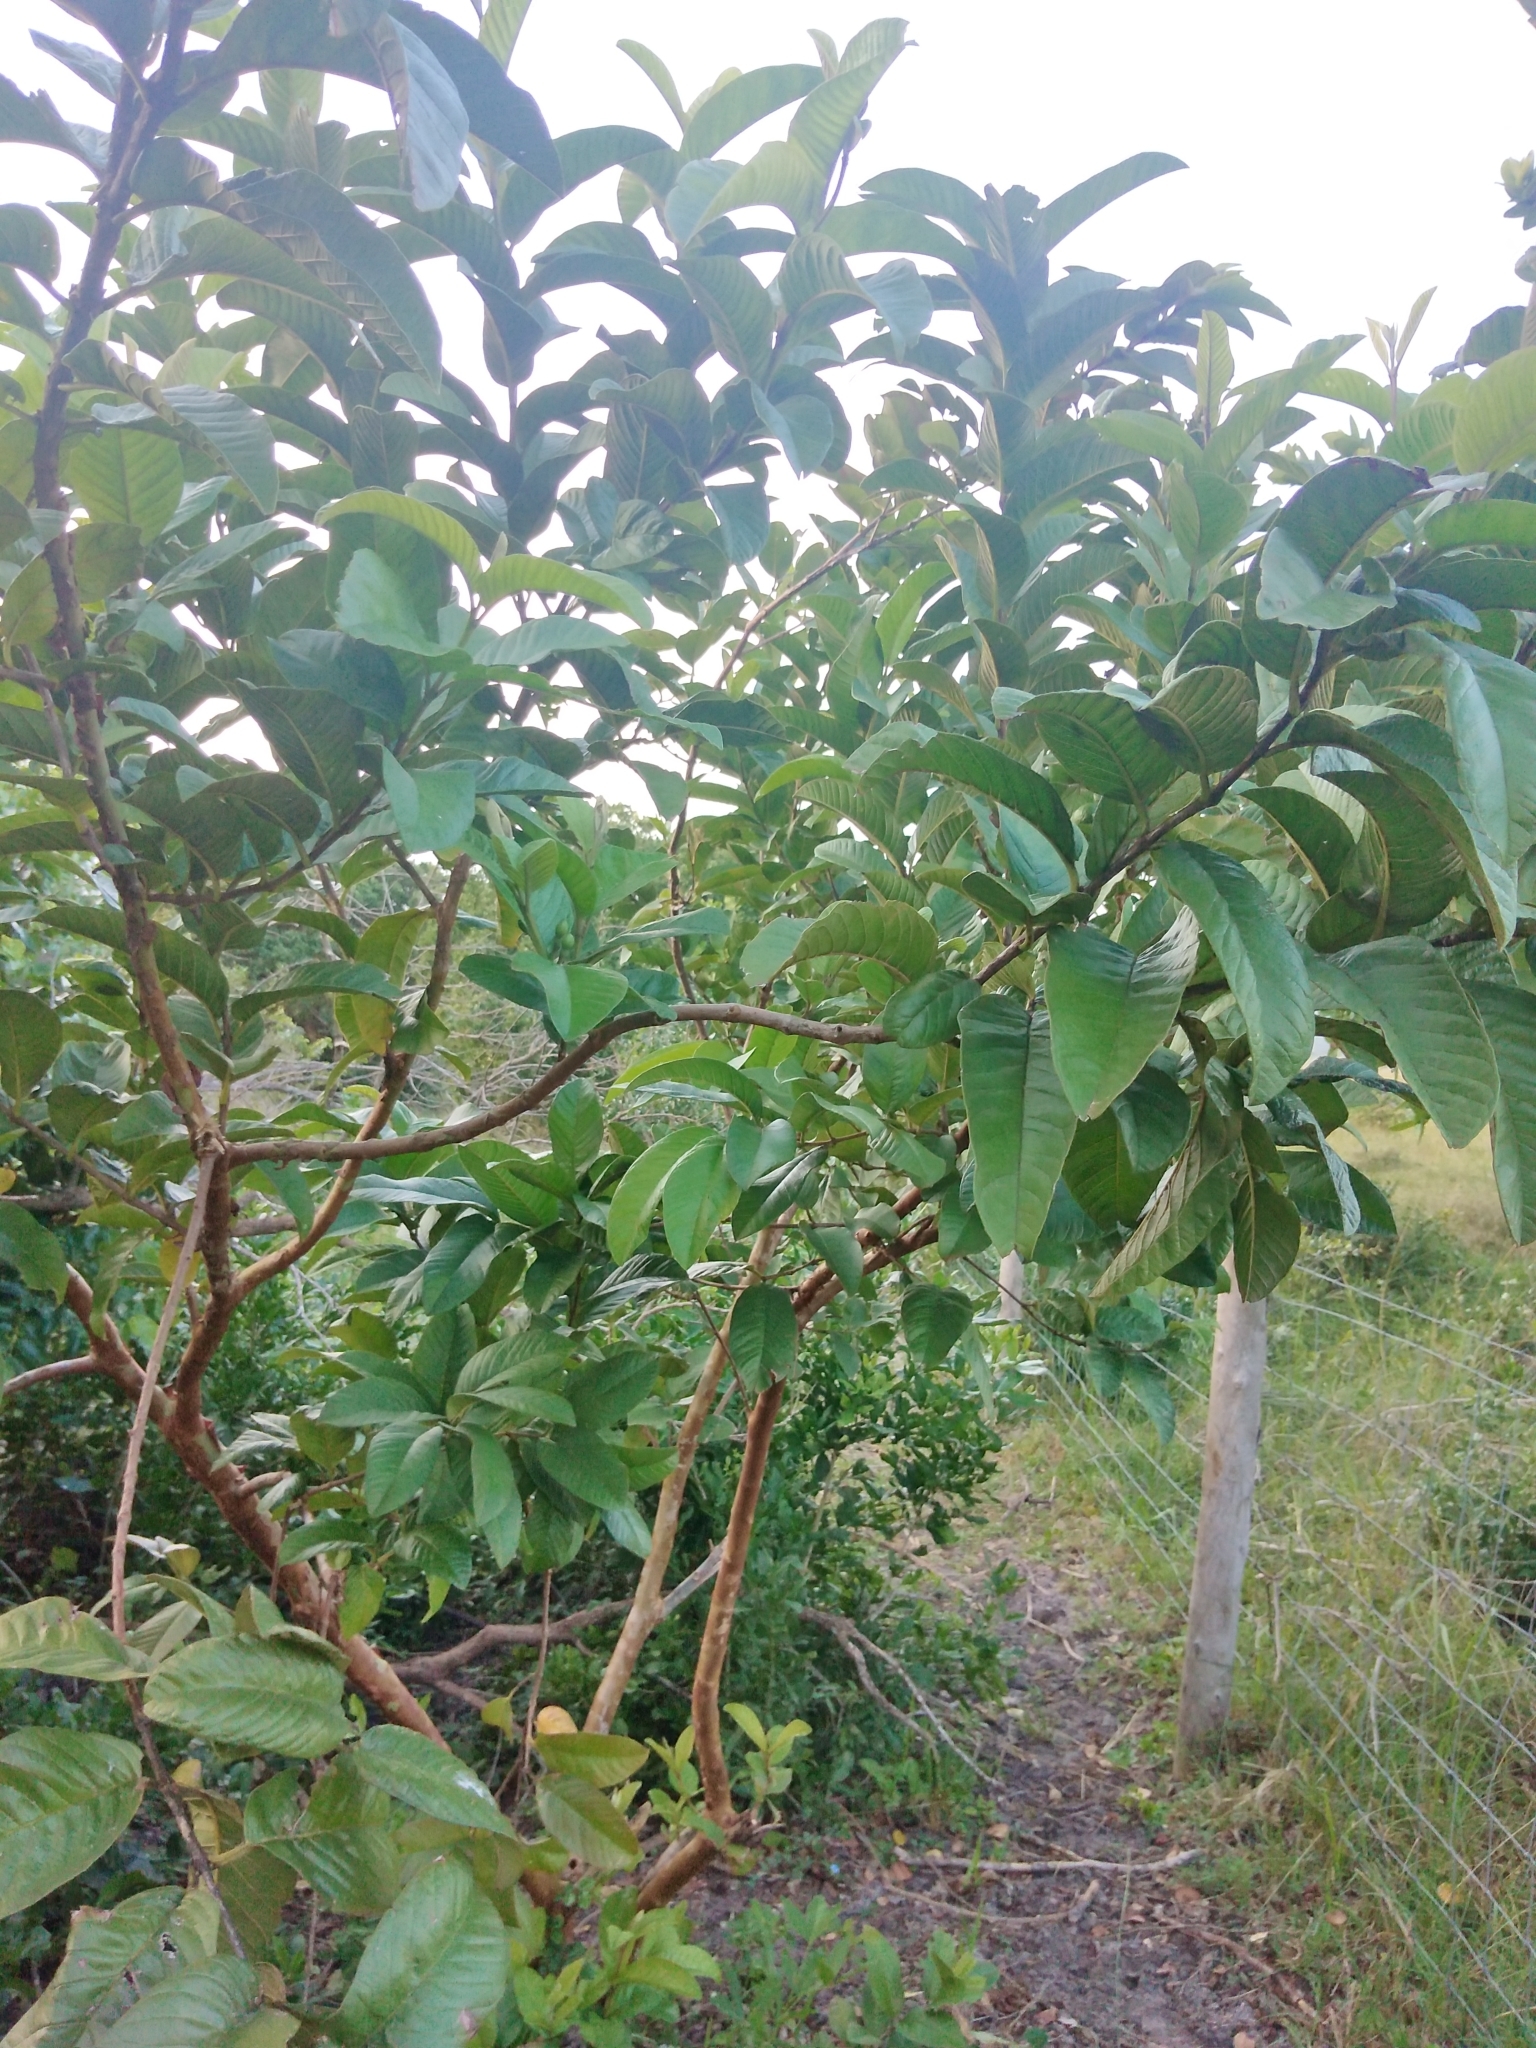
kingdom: Plantae
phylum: Tracheophyta
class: Magnoliopsida
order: Myrtales
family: Myrtaceae
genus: Psidium
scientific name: Psidium guajava
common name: Guava
